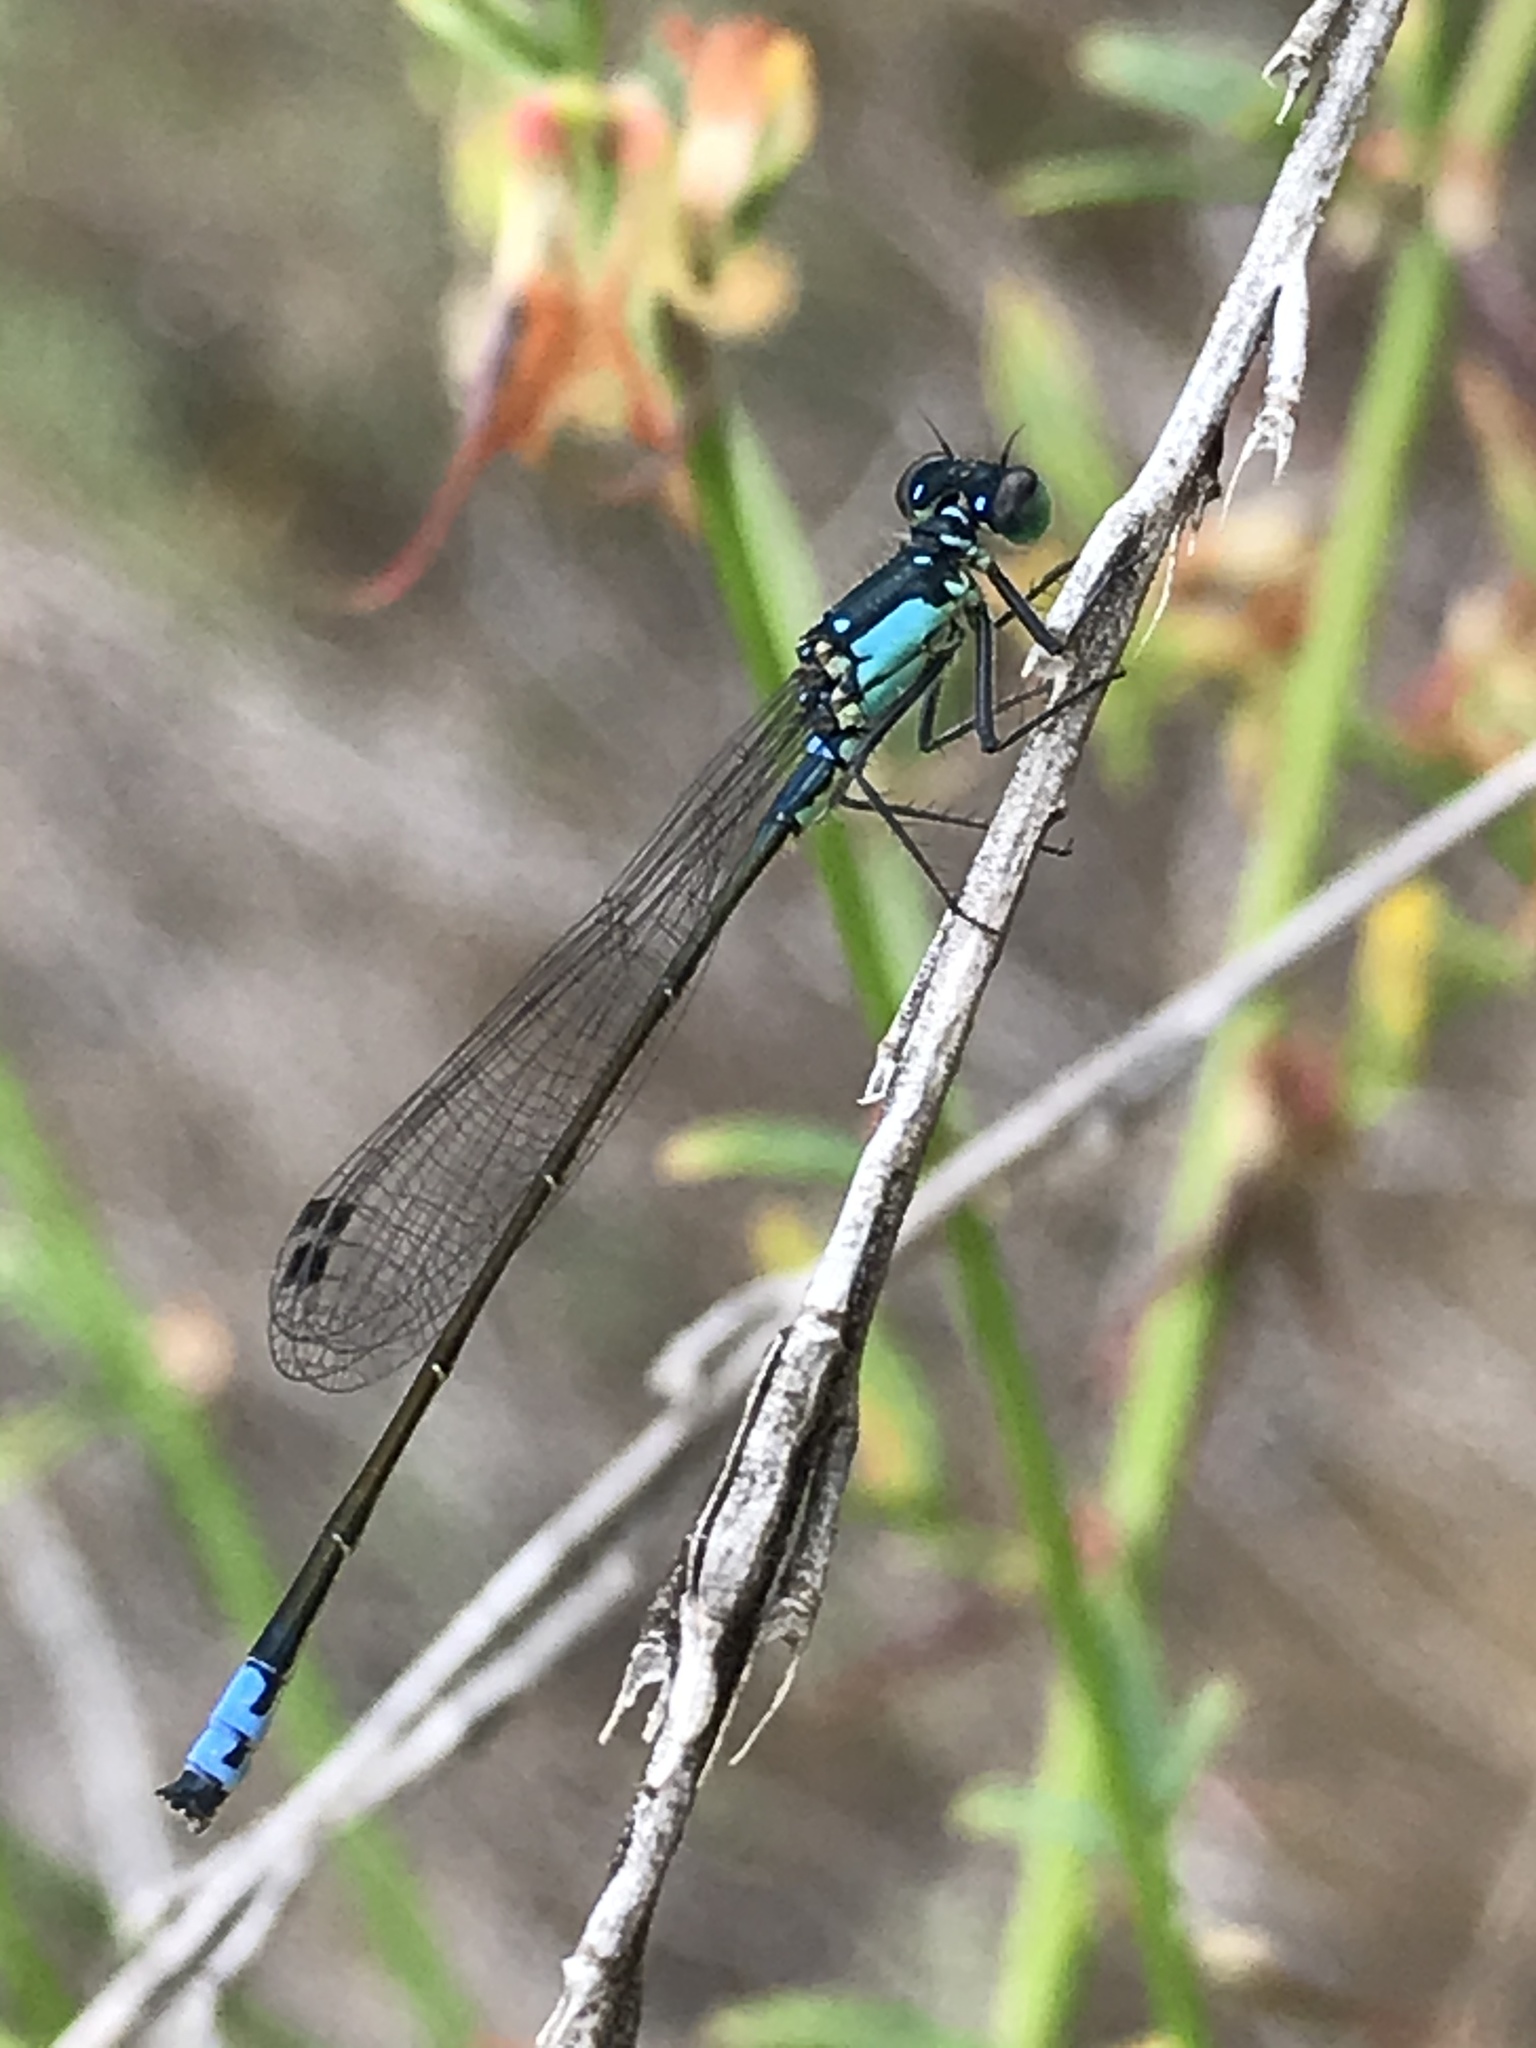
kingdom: Animalia
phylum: Arthropoda
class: Insecta
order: Odonata
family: Coenagrionidae
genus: Ischnura
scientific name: Ischnura cervula
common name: Pacific forktail
